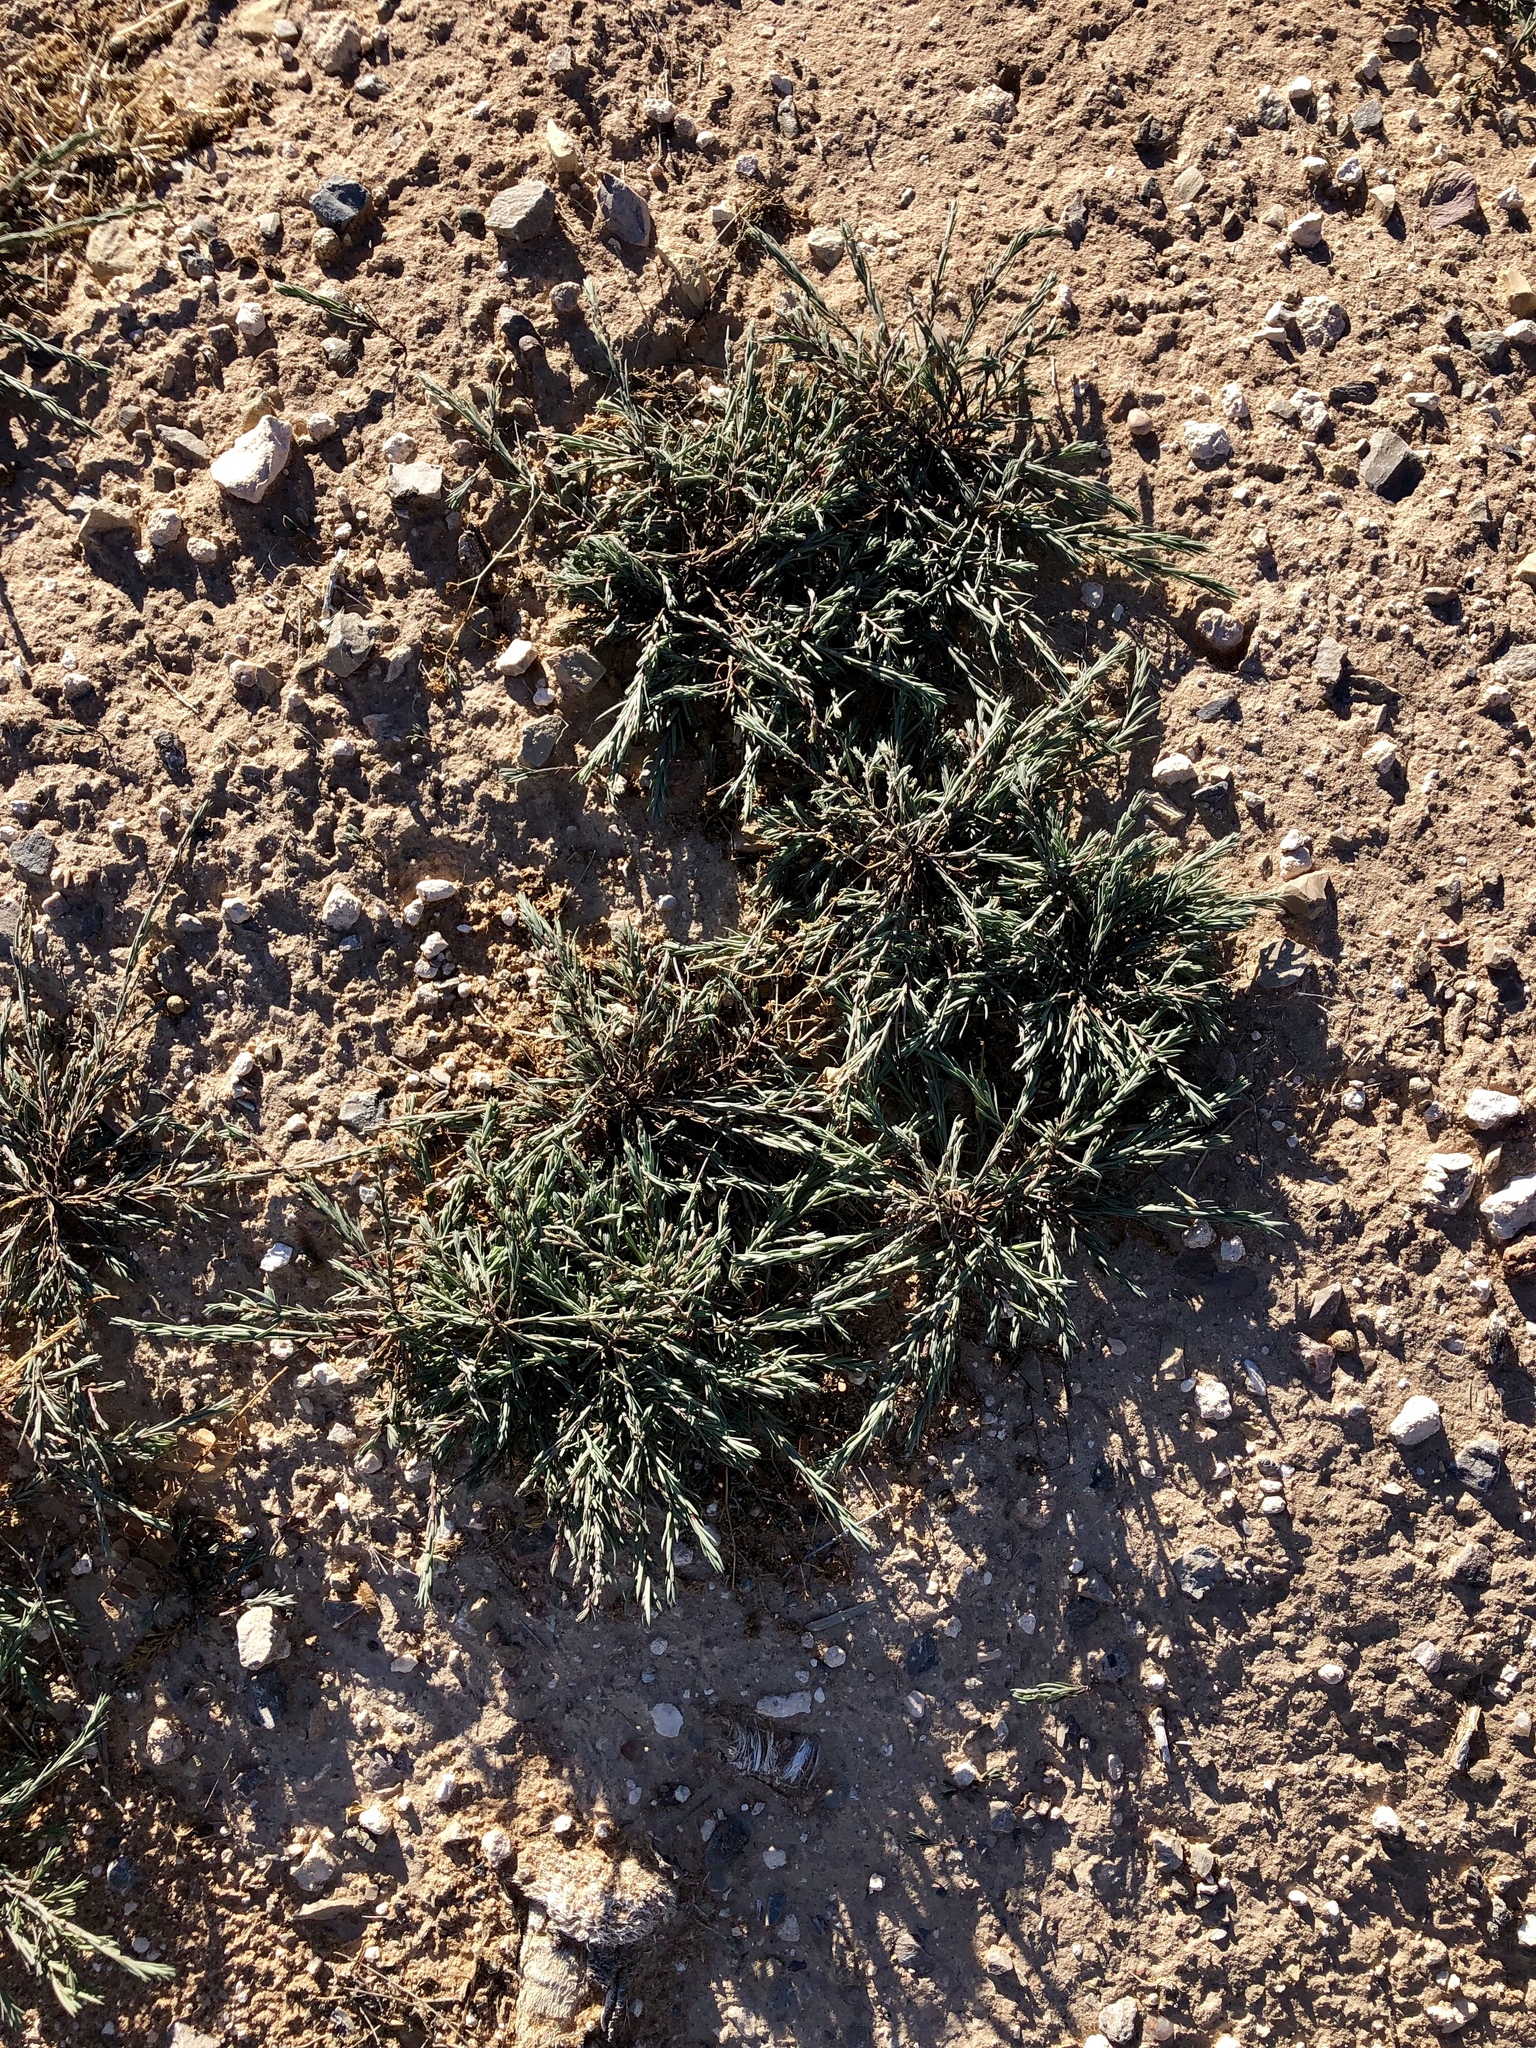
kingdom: Plantae
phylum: Tracheophyta
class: Magnoliopsida
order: Caryophyllales
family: Polygonaceae
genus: Polygonum
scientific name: Polygonum aviculare
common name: Prostrate knotweed
